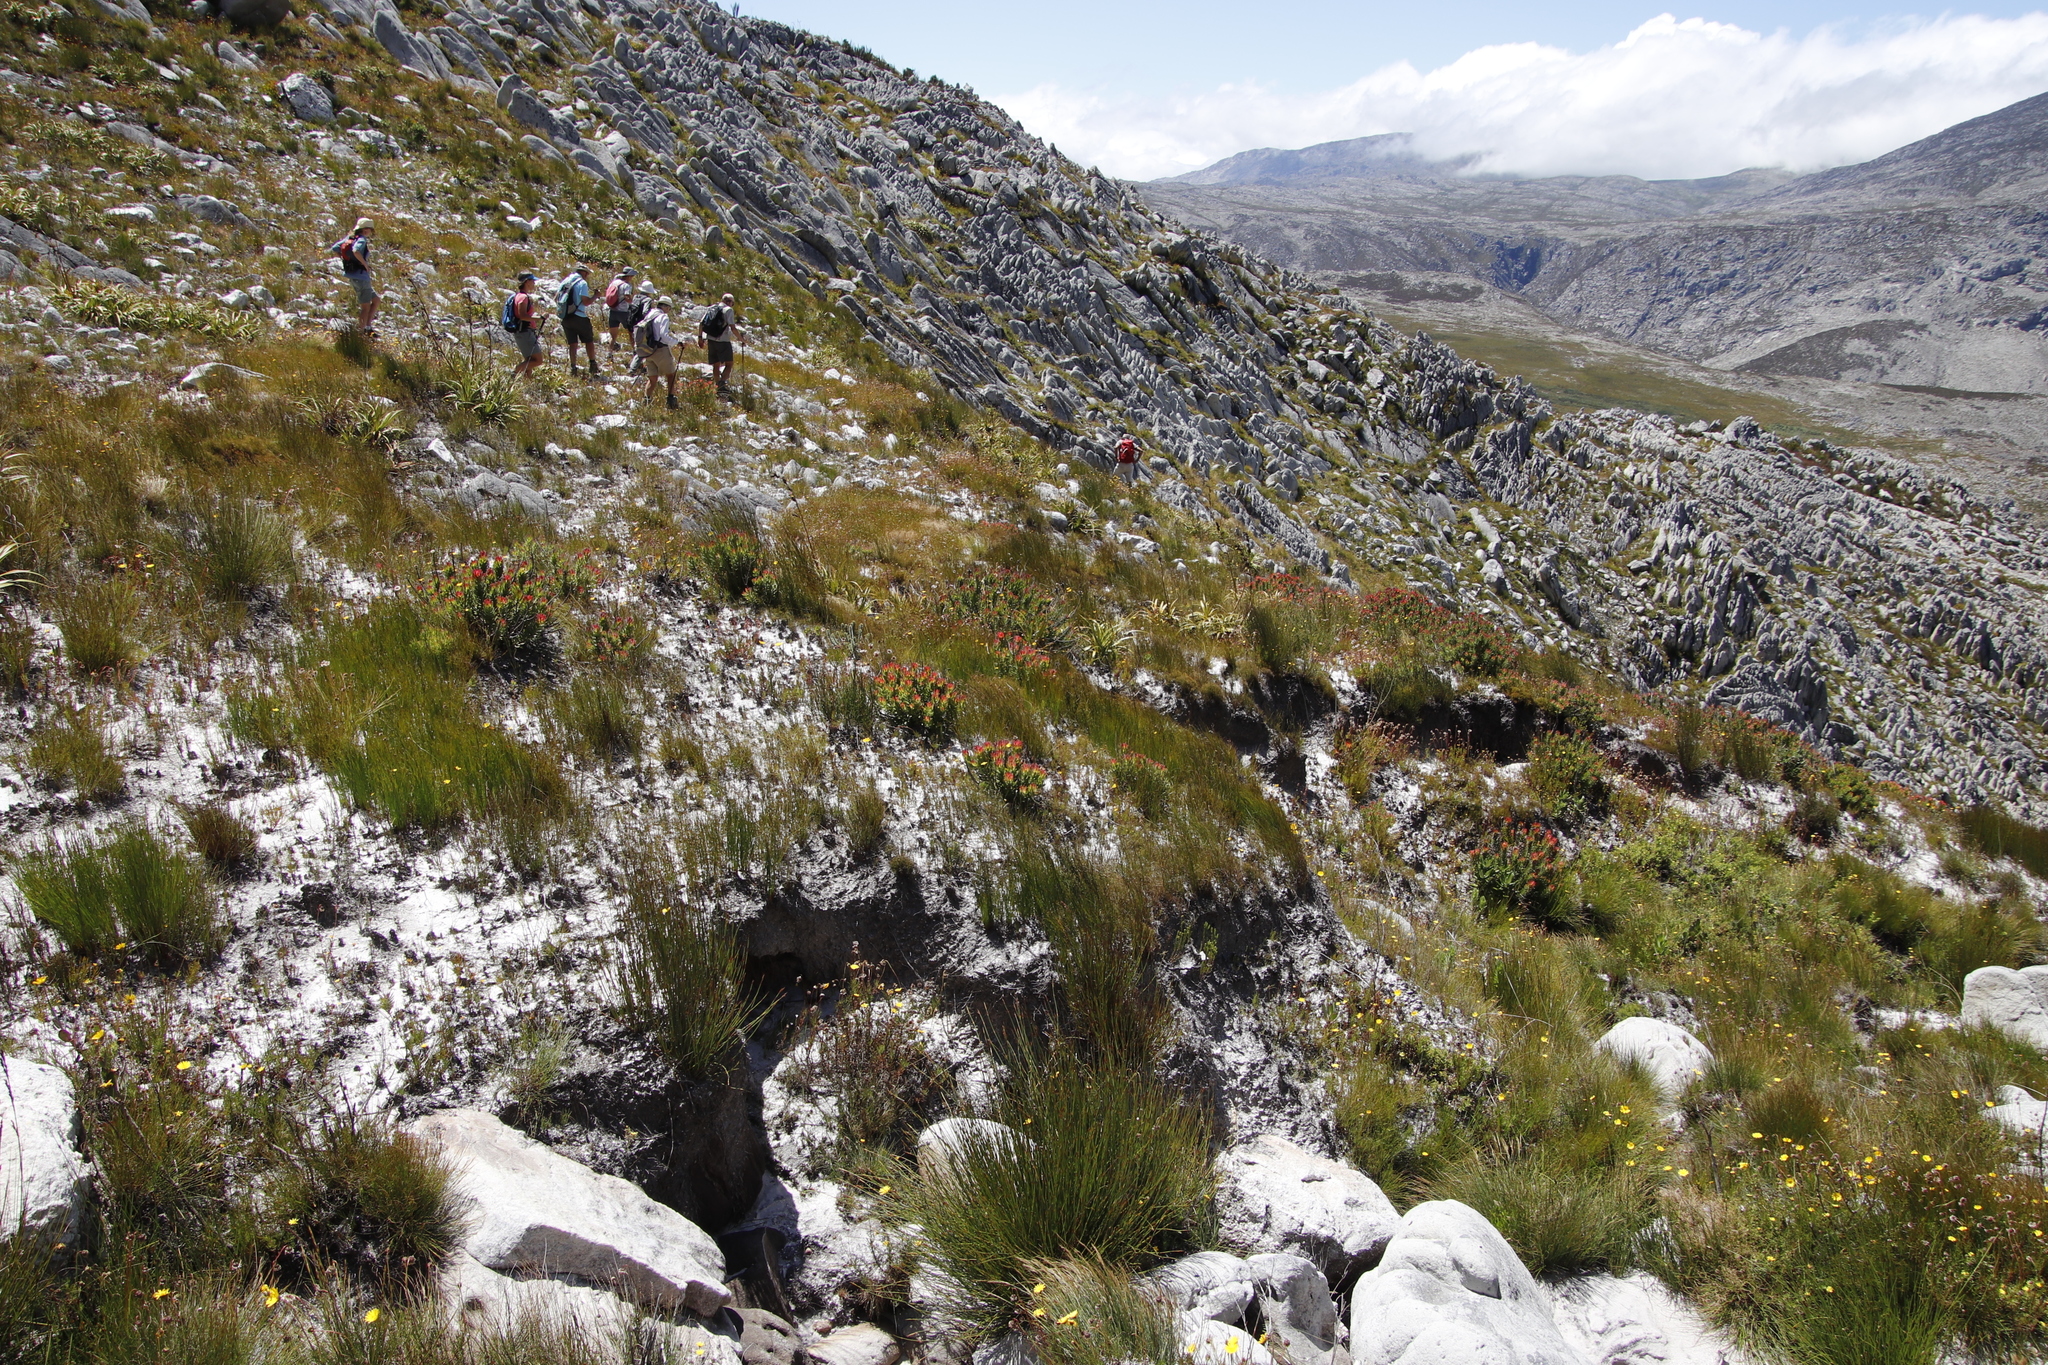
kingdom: Plantae
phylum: Tracheophyta
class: Magnoliopsida
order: Proteales
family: Proteaceae
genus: Mimetes
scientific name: Mimetes cucullatus
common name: Common pagoda
